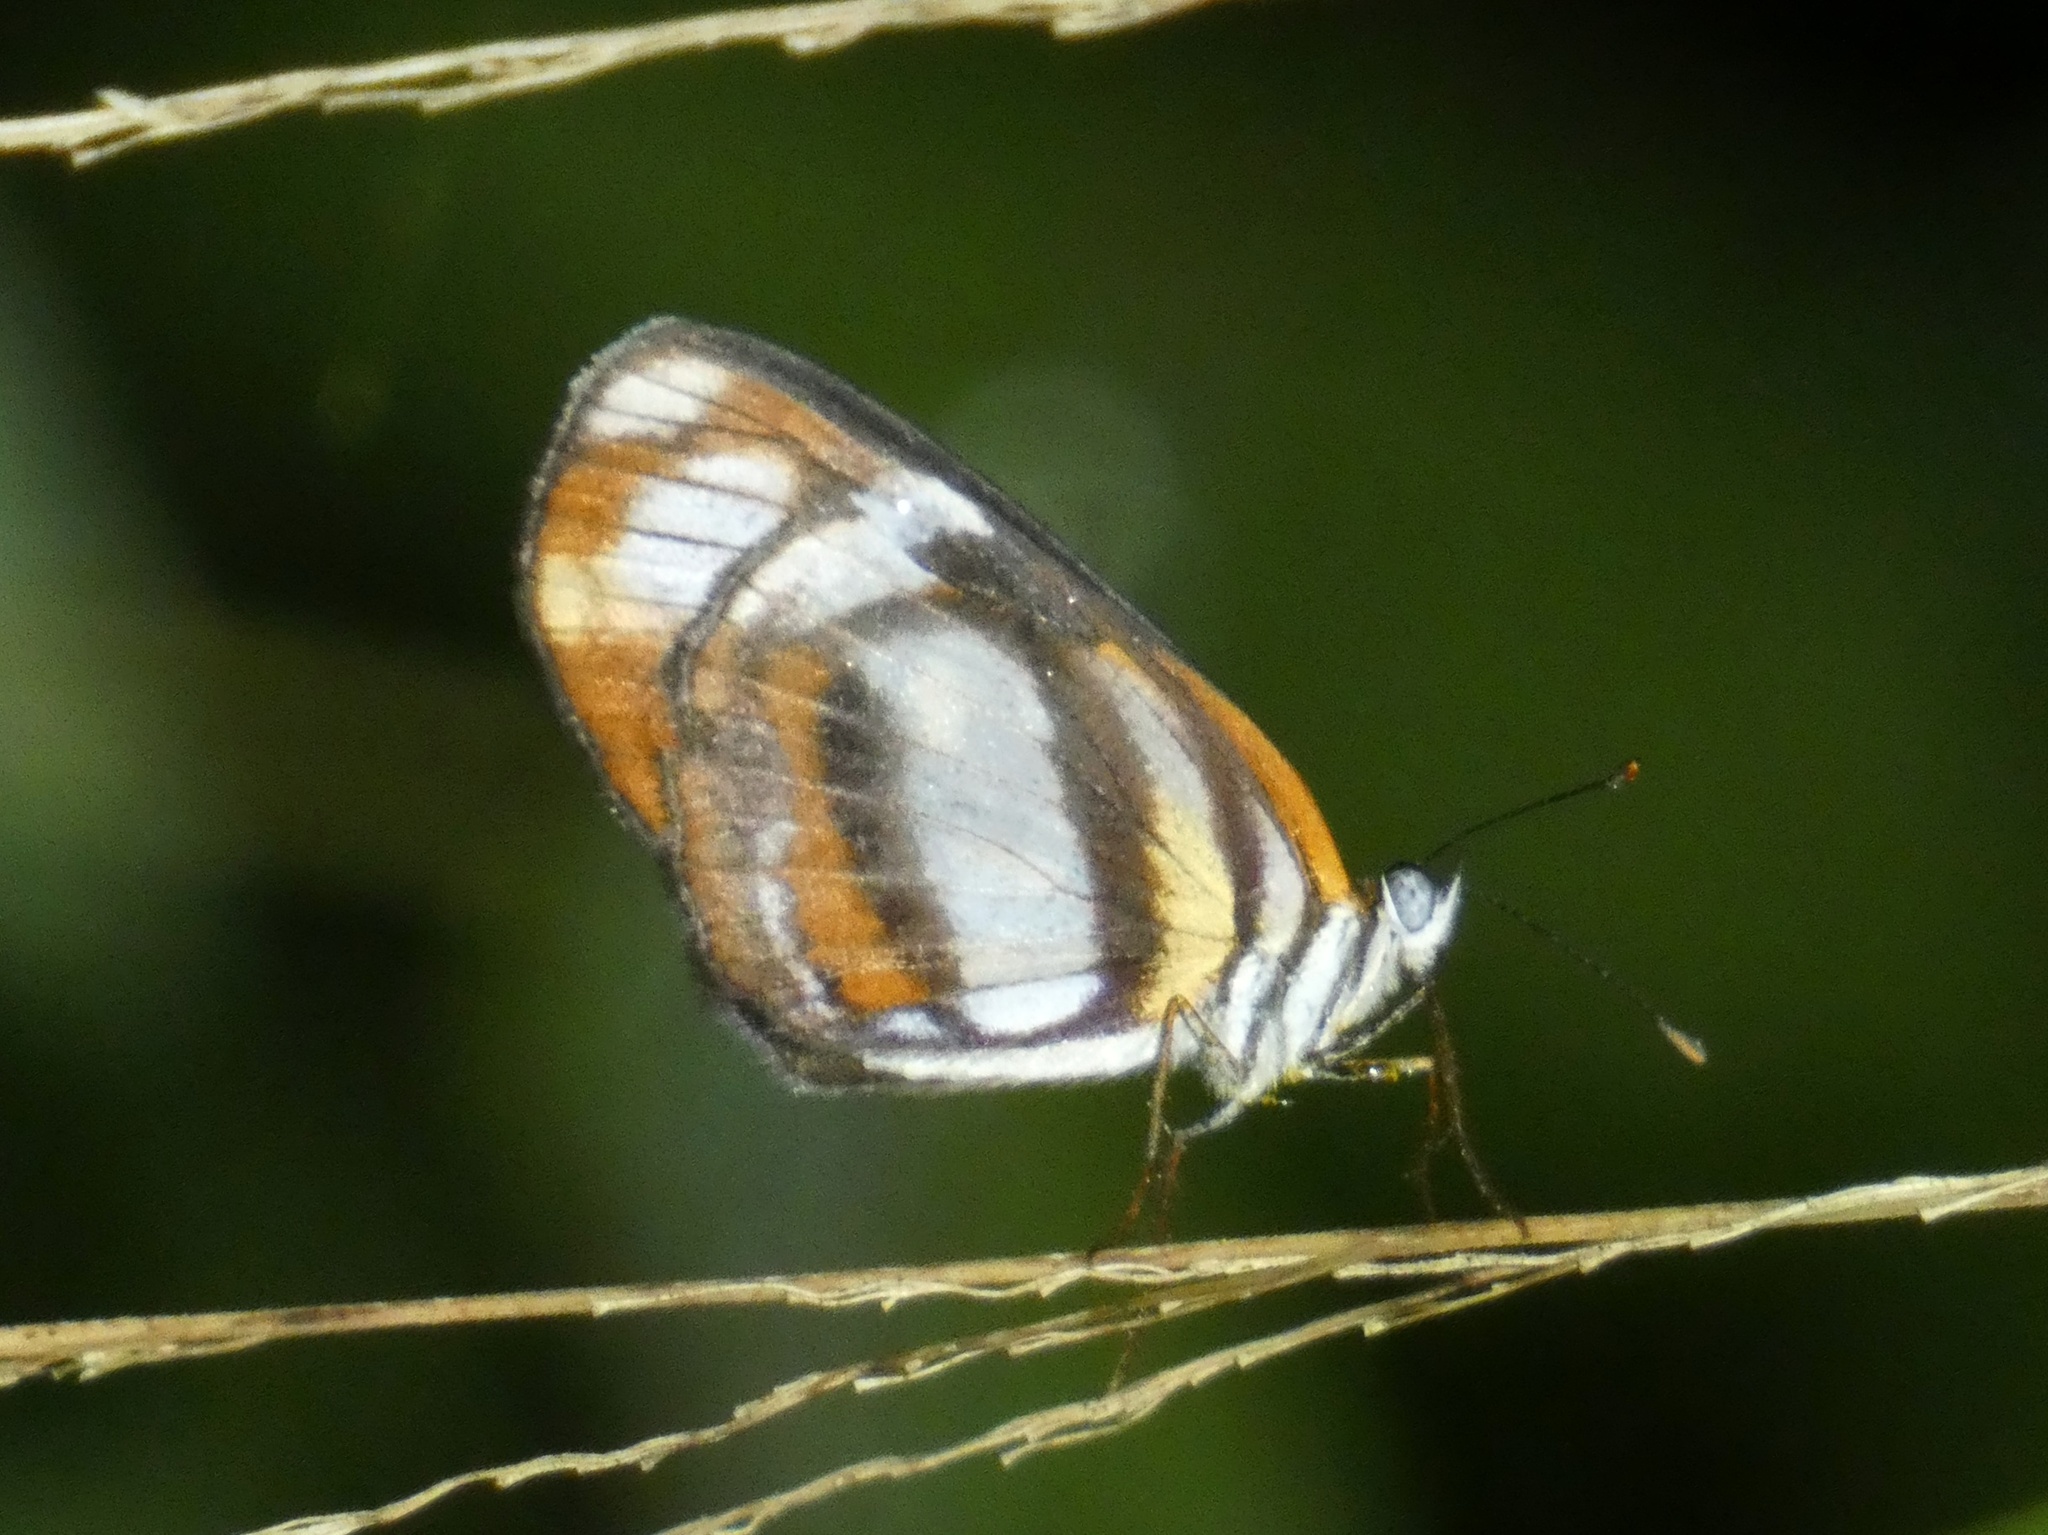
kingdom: Animalia
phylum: Arthropoda
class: Insecta
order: Lepidoptera
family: Nymphalidae
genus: Eresia
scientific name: Eresia clio
